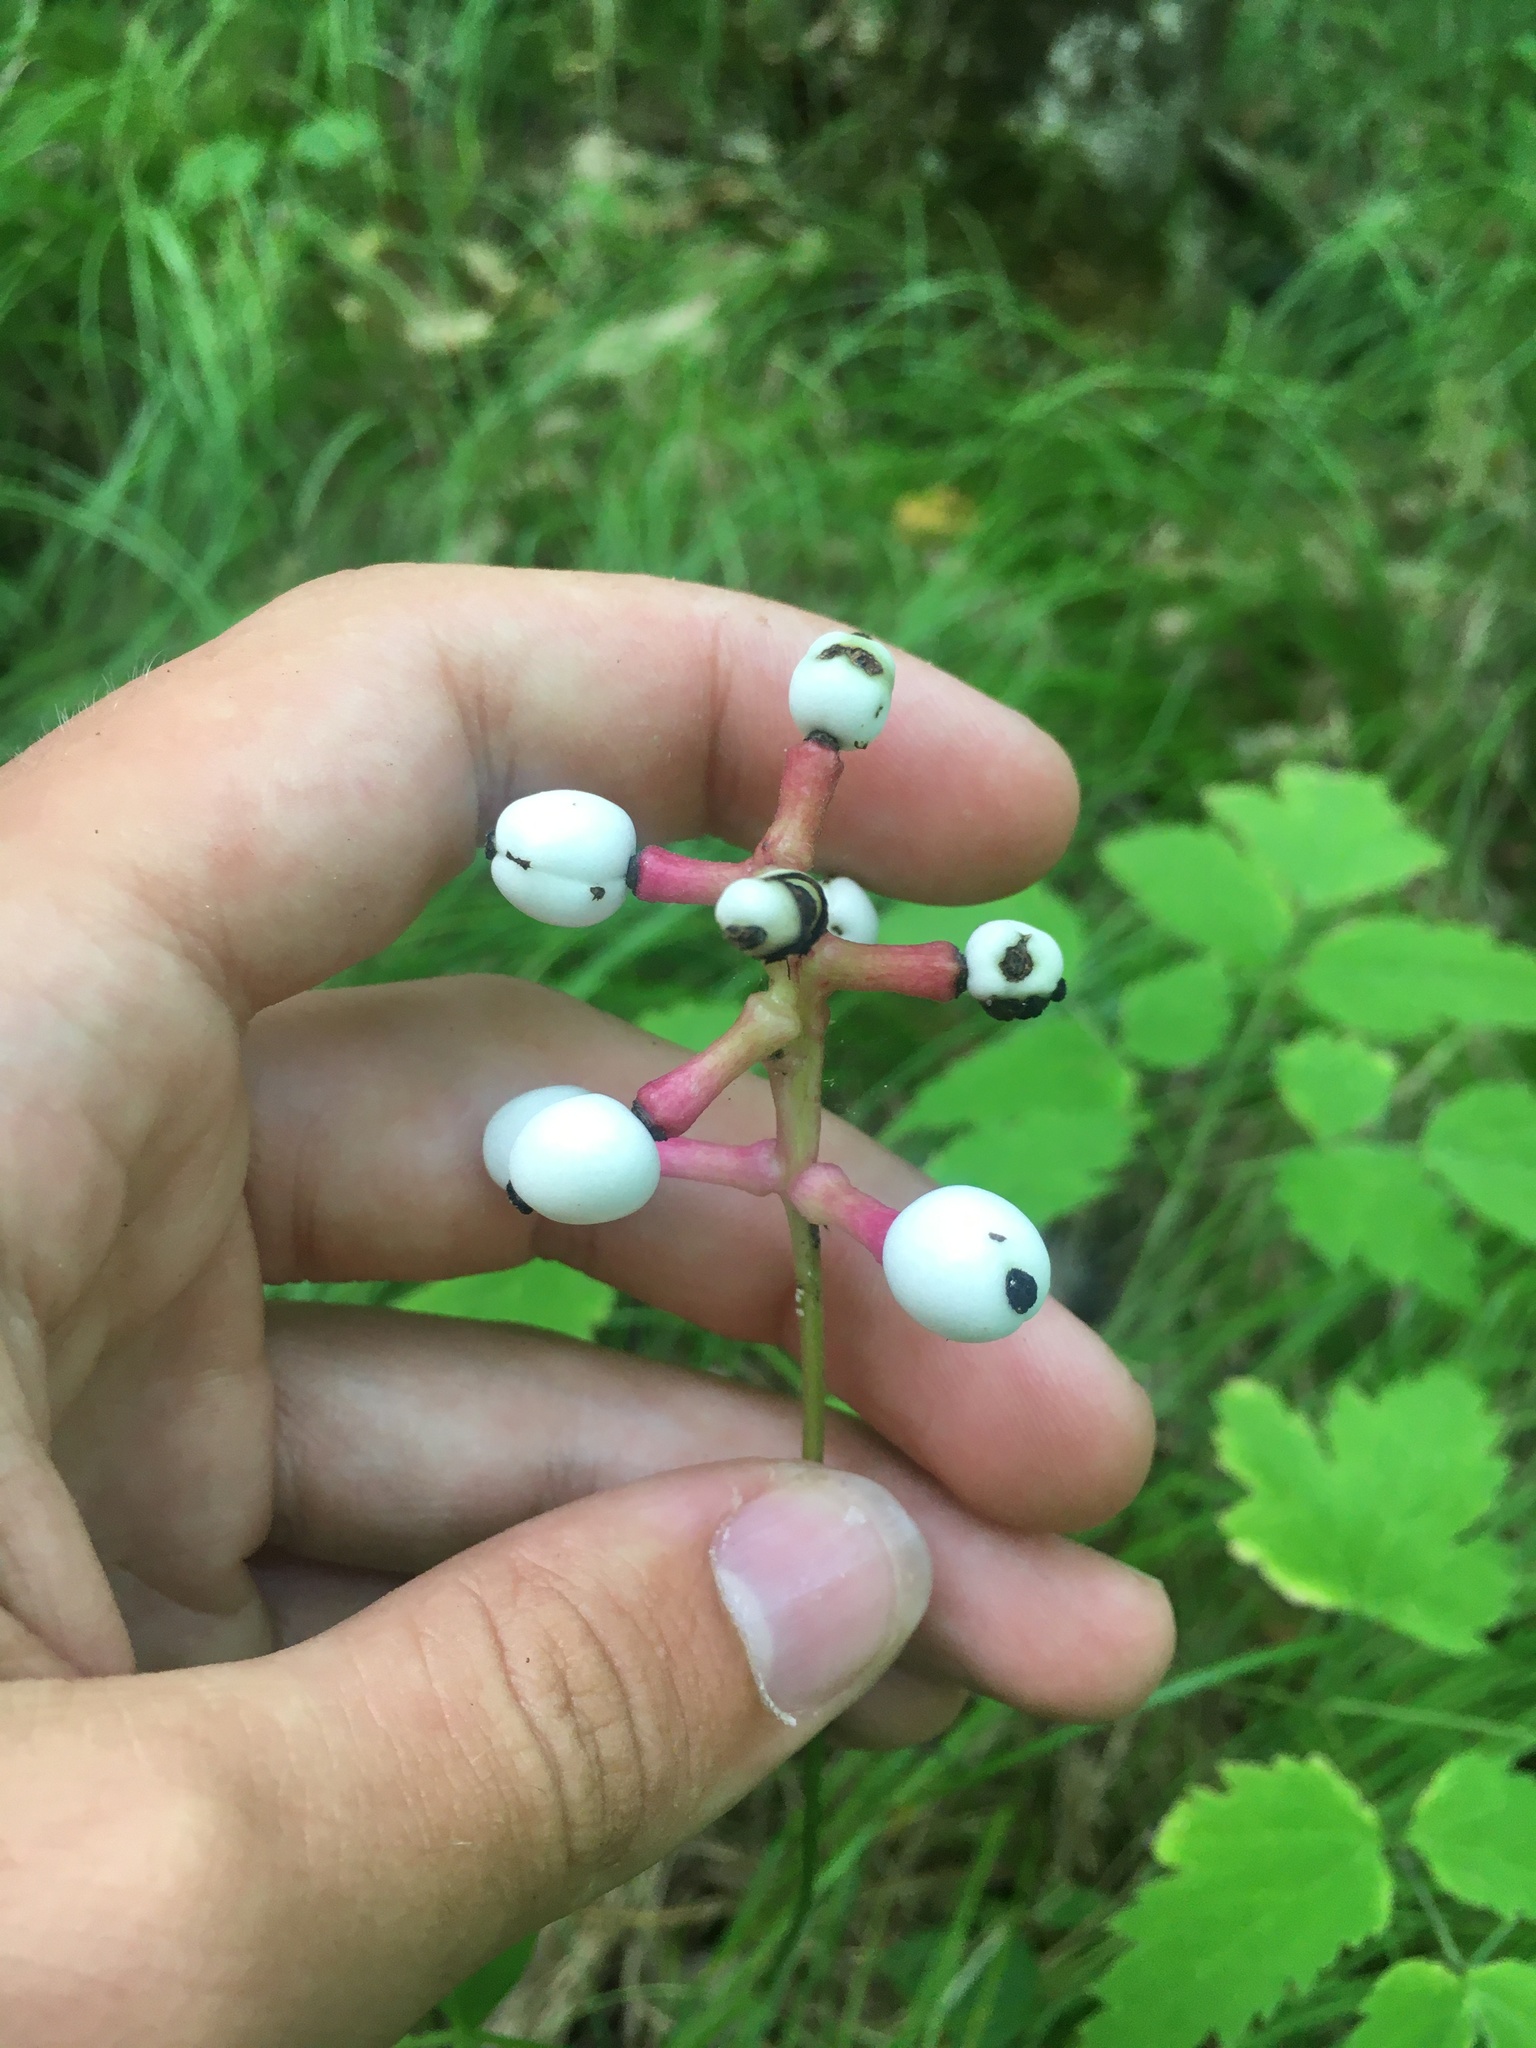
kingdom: Plantae
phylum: Tracheophyta
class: Magnoliopsida
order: Ranunculales
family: Ranunculaceae
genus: Actaea
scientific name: Actaea pachypoda
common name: Doll's-eyes
